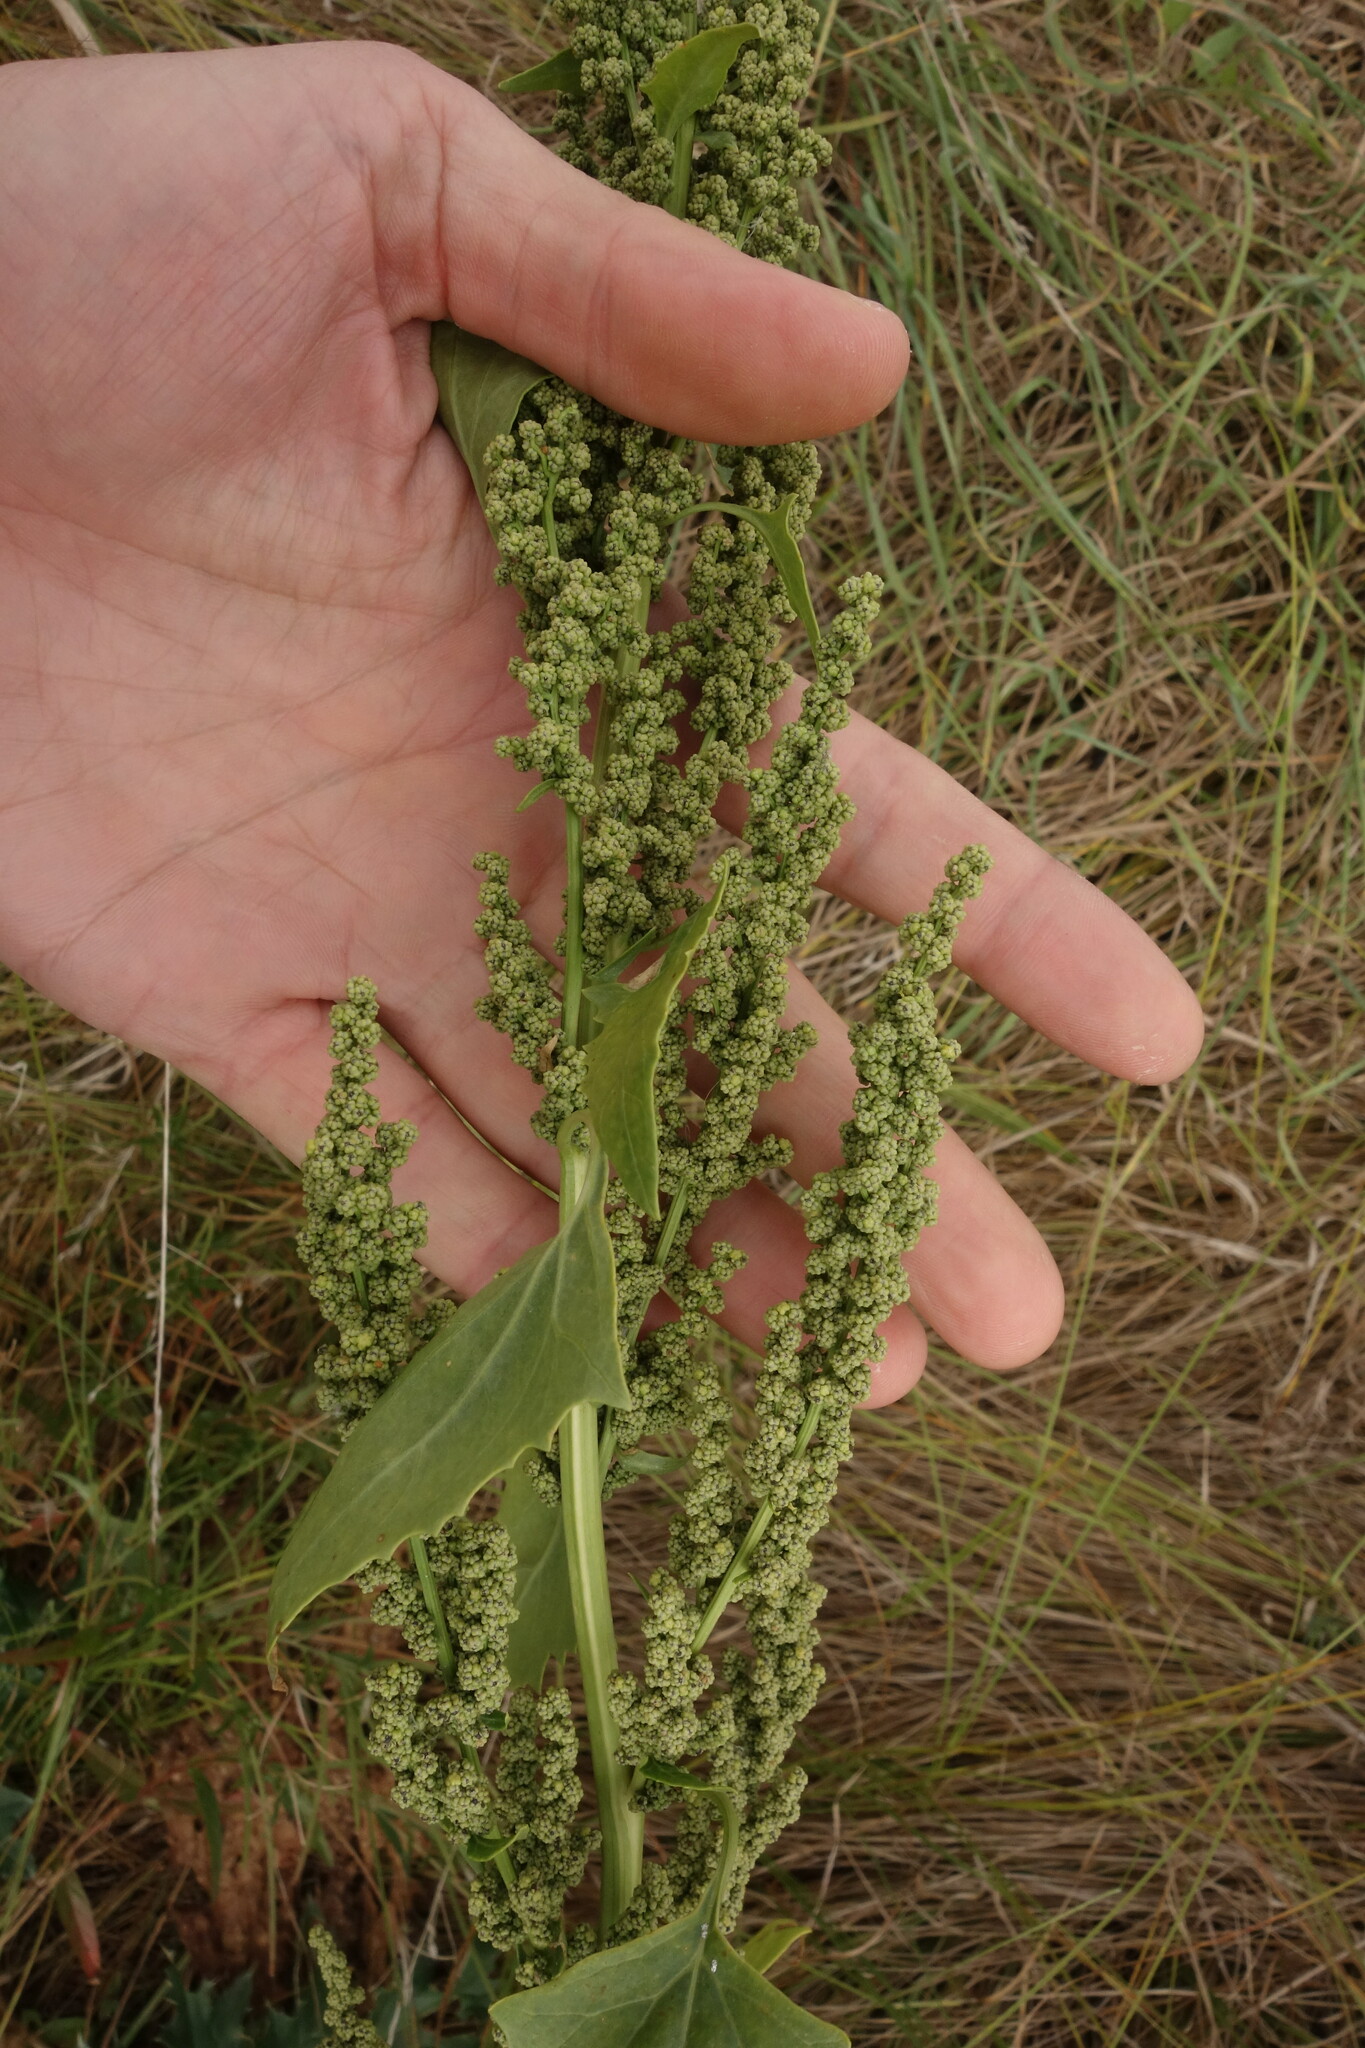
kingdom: Plantae
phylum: Tracheophyta
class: Magnoliopsida
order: Caryophyllales
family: Amaranthaceae
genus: Oxybasis
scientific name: Oxybasis urbica
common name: City goosefoot
